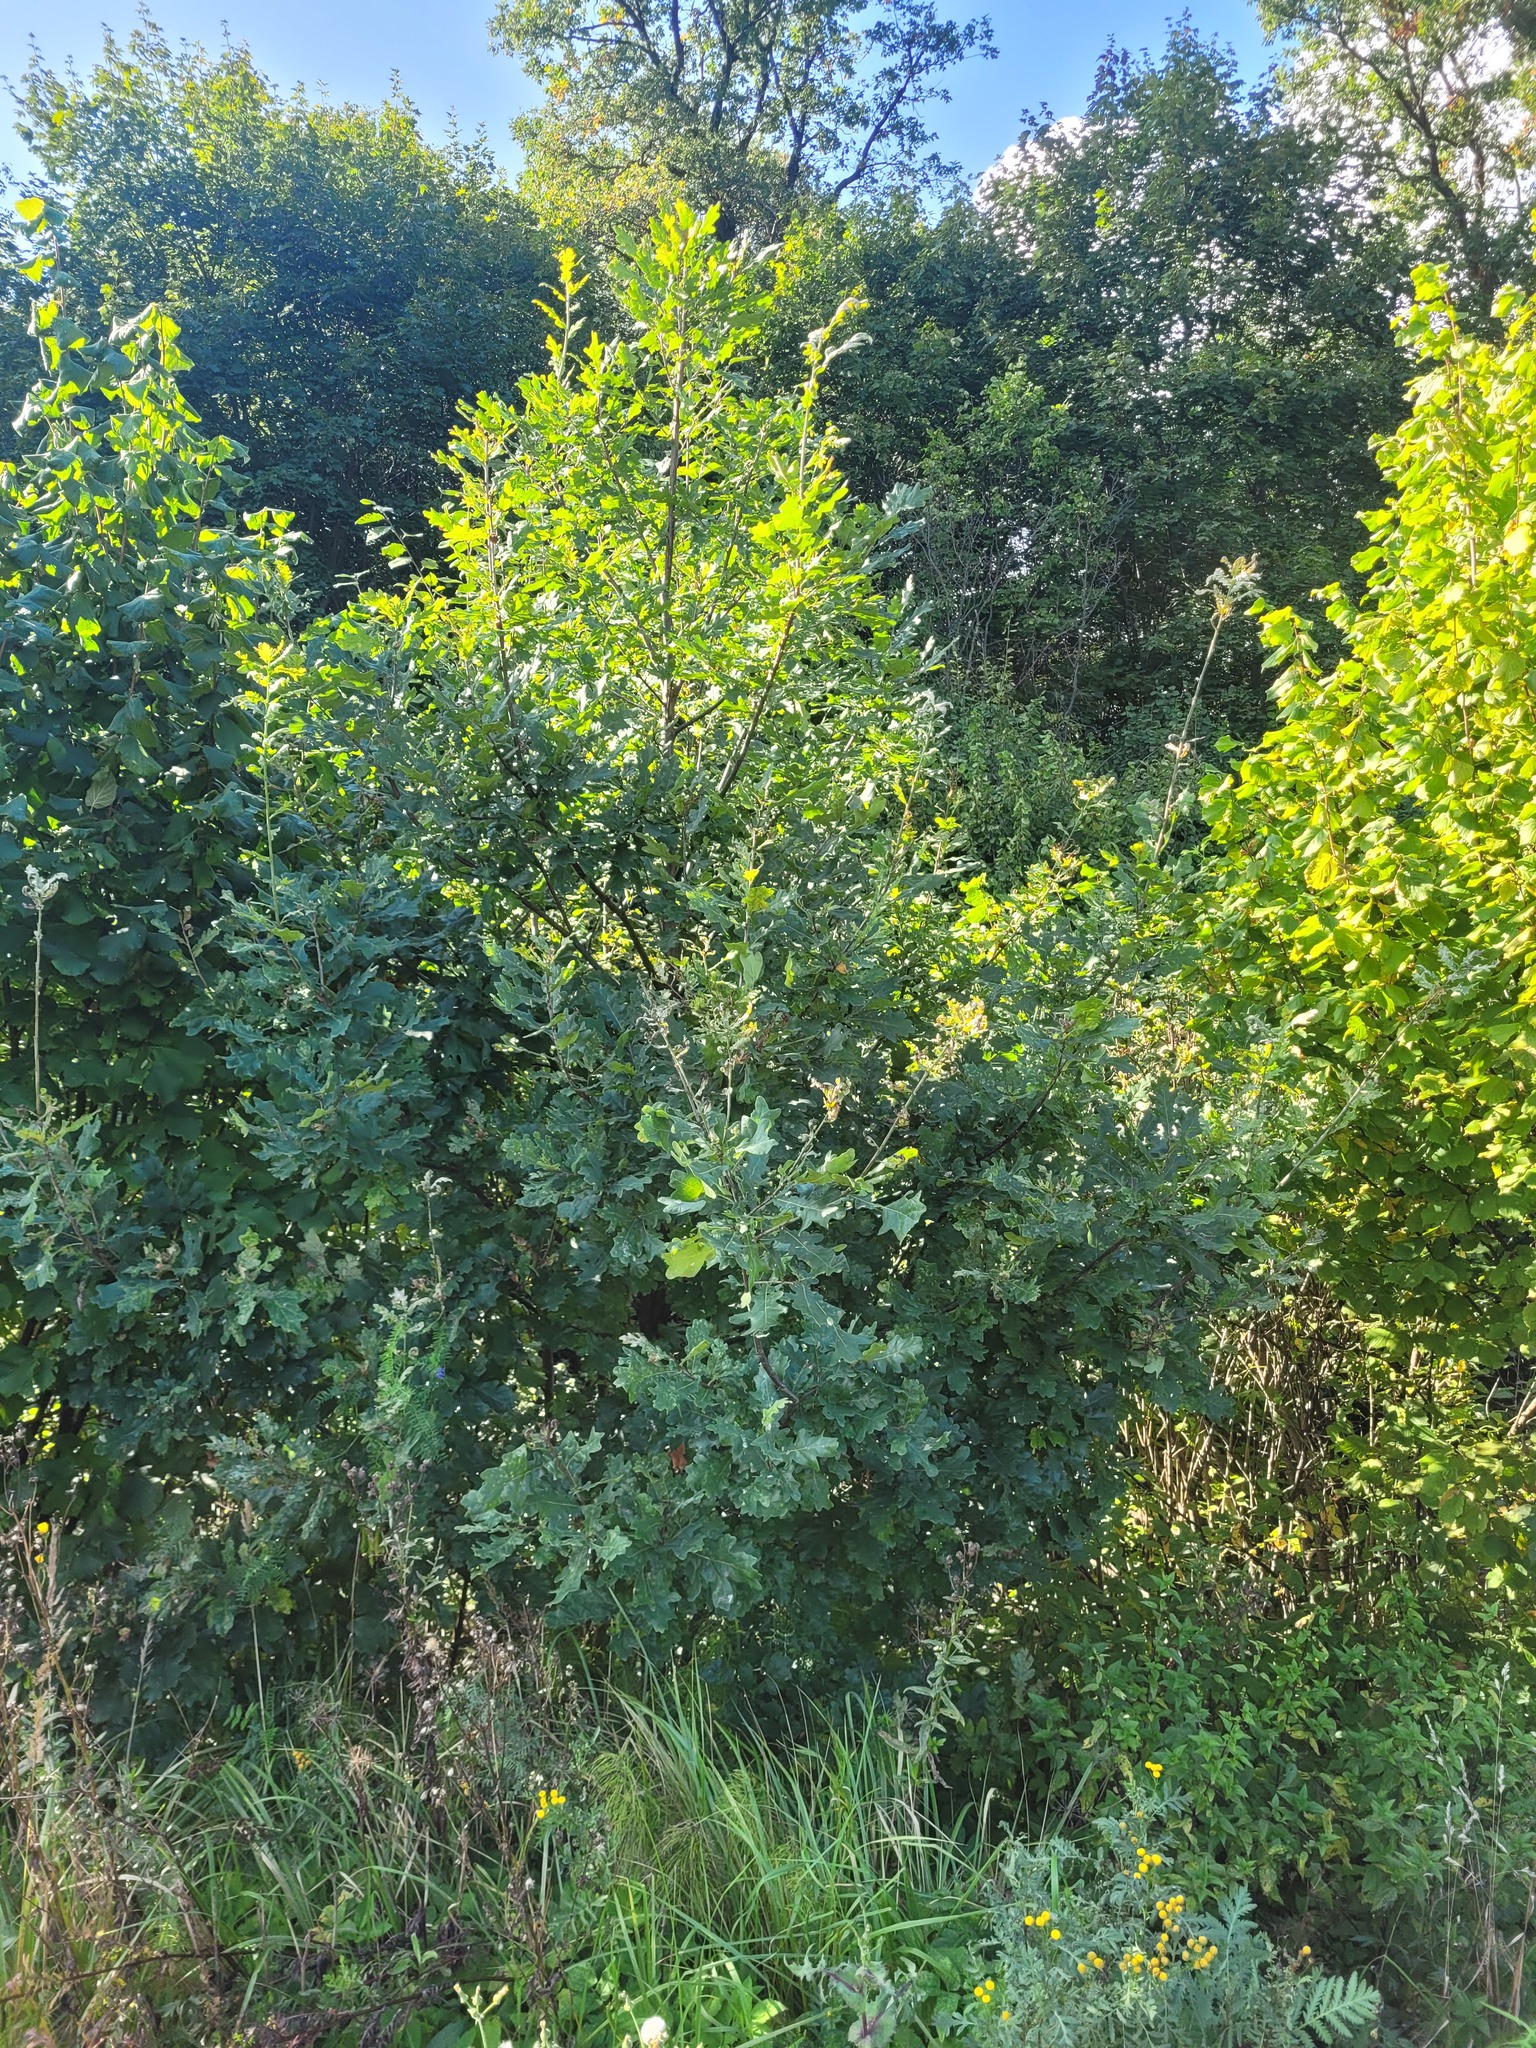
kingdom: Plantae
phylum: Tracheophyta
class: Magnoliopsida
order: Fagales
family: Fagaceae
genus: Quercus
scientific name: Quercus robur
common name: Pedunculate oak
